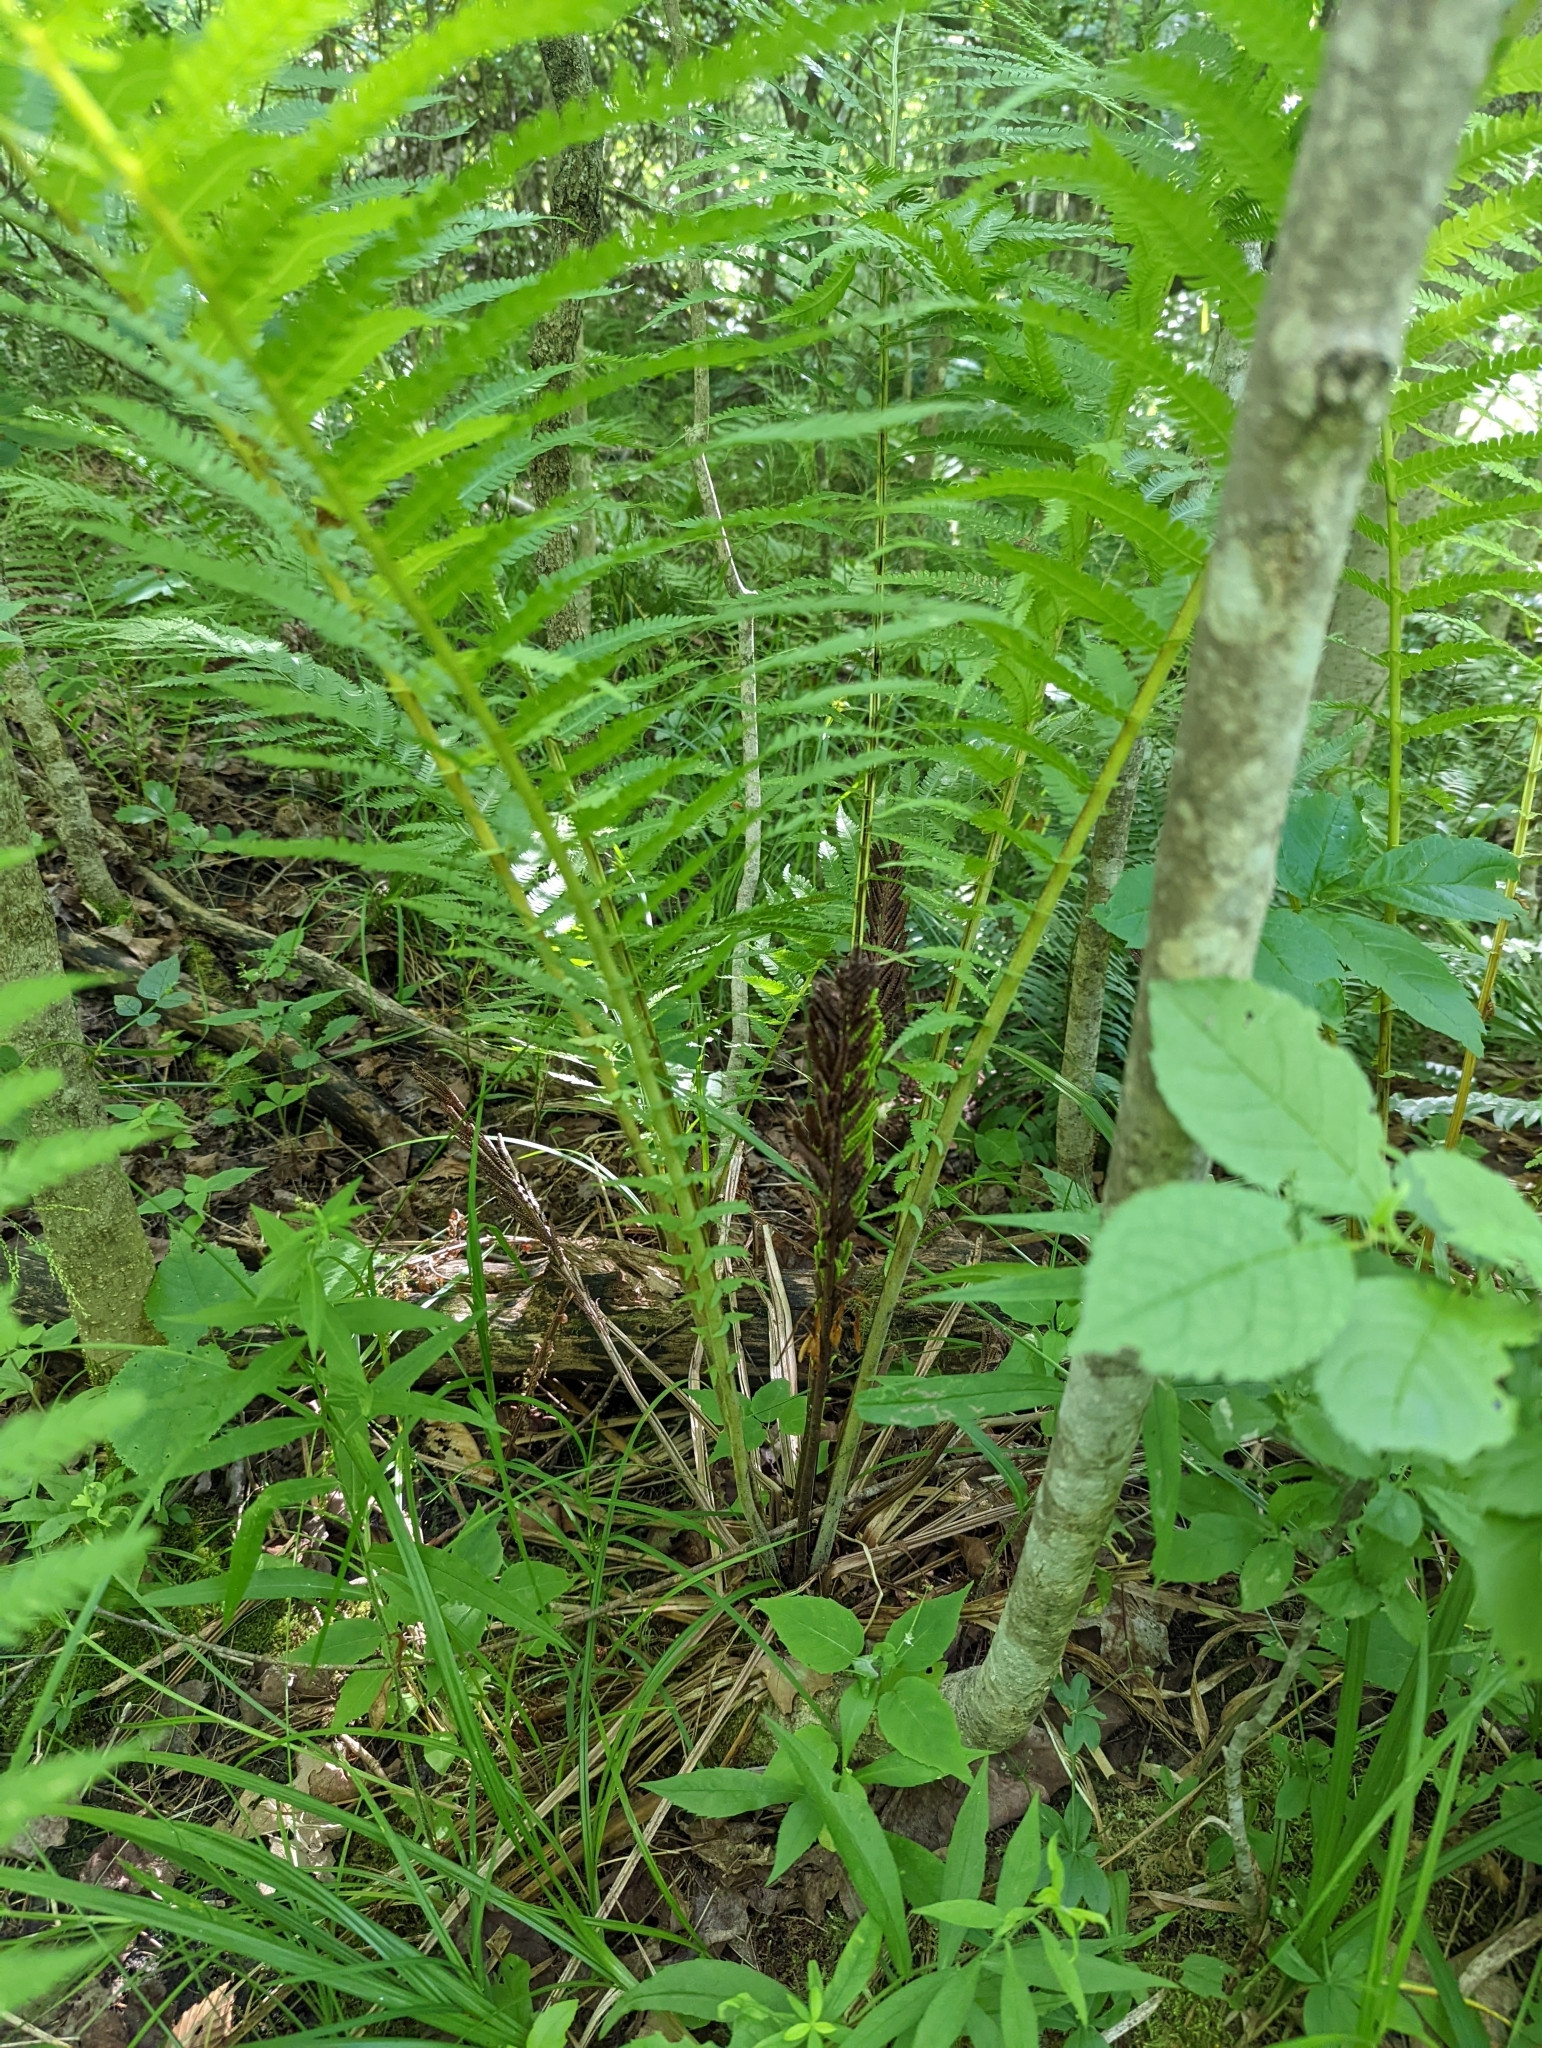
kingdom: Plantae
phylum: Tracheophyta
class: Polypodiopsida
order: Polypodiales
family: Onocleaceae
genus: Matteuccia
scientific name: Matteuccia struthiopteris
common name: Ostrich fern
